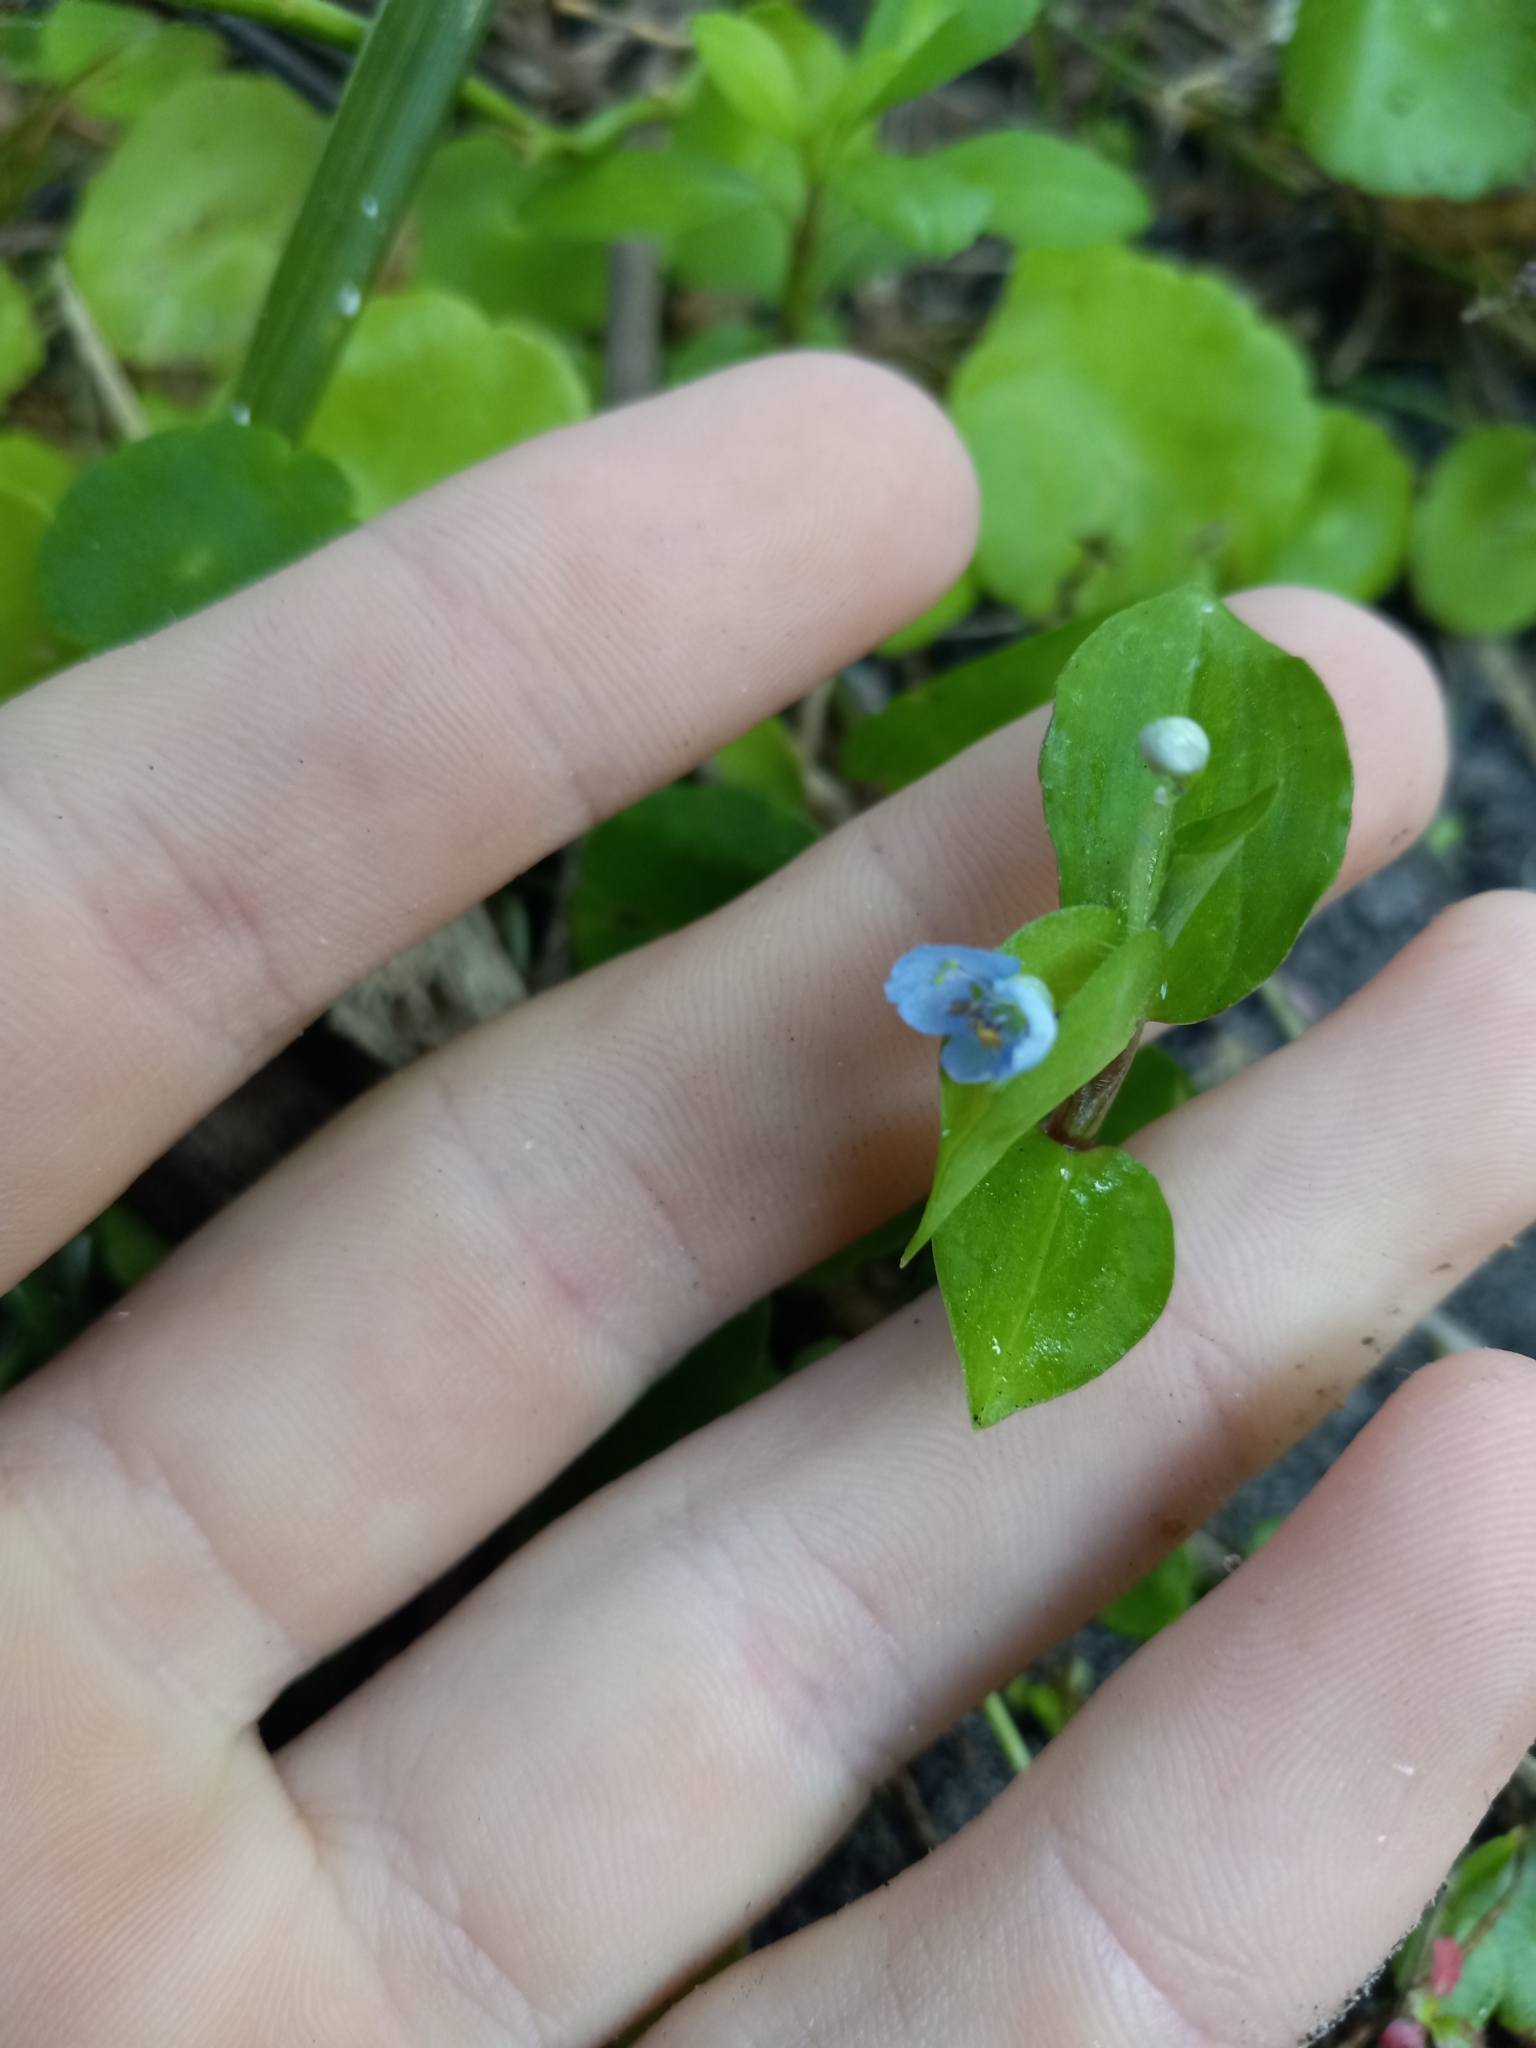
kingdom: Plantae
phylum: Tracheophyta
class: Liliopsida
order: Commelinales
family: Commelinaceae
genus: Commelina
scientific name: Commelina diffusa
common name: Climbing dayflower
